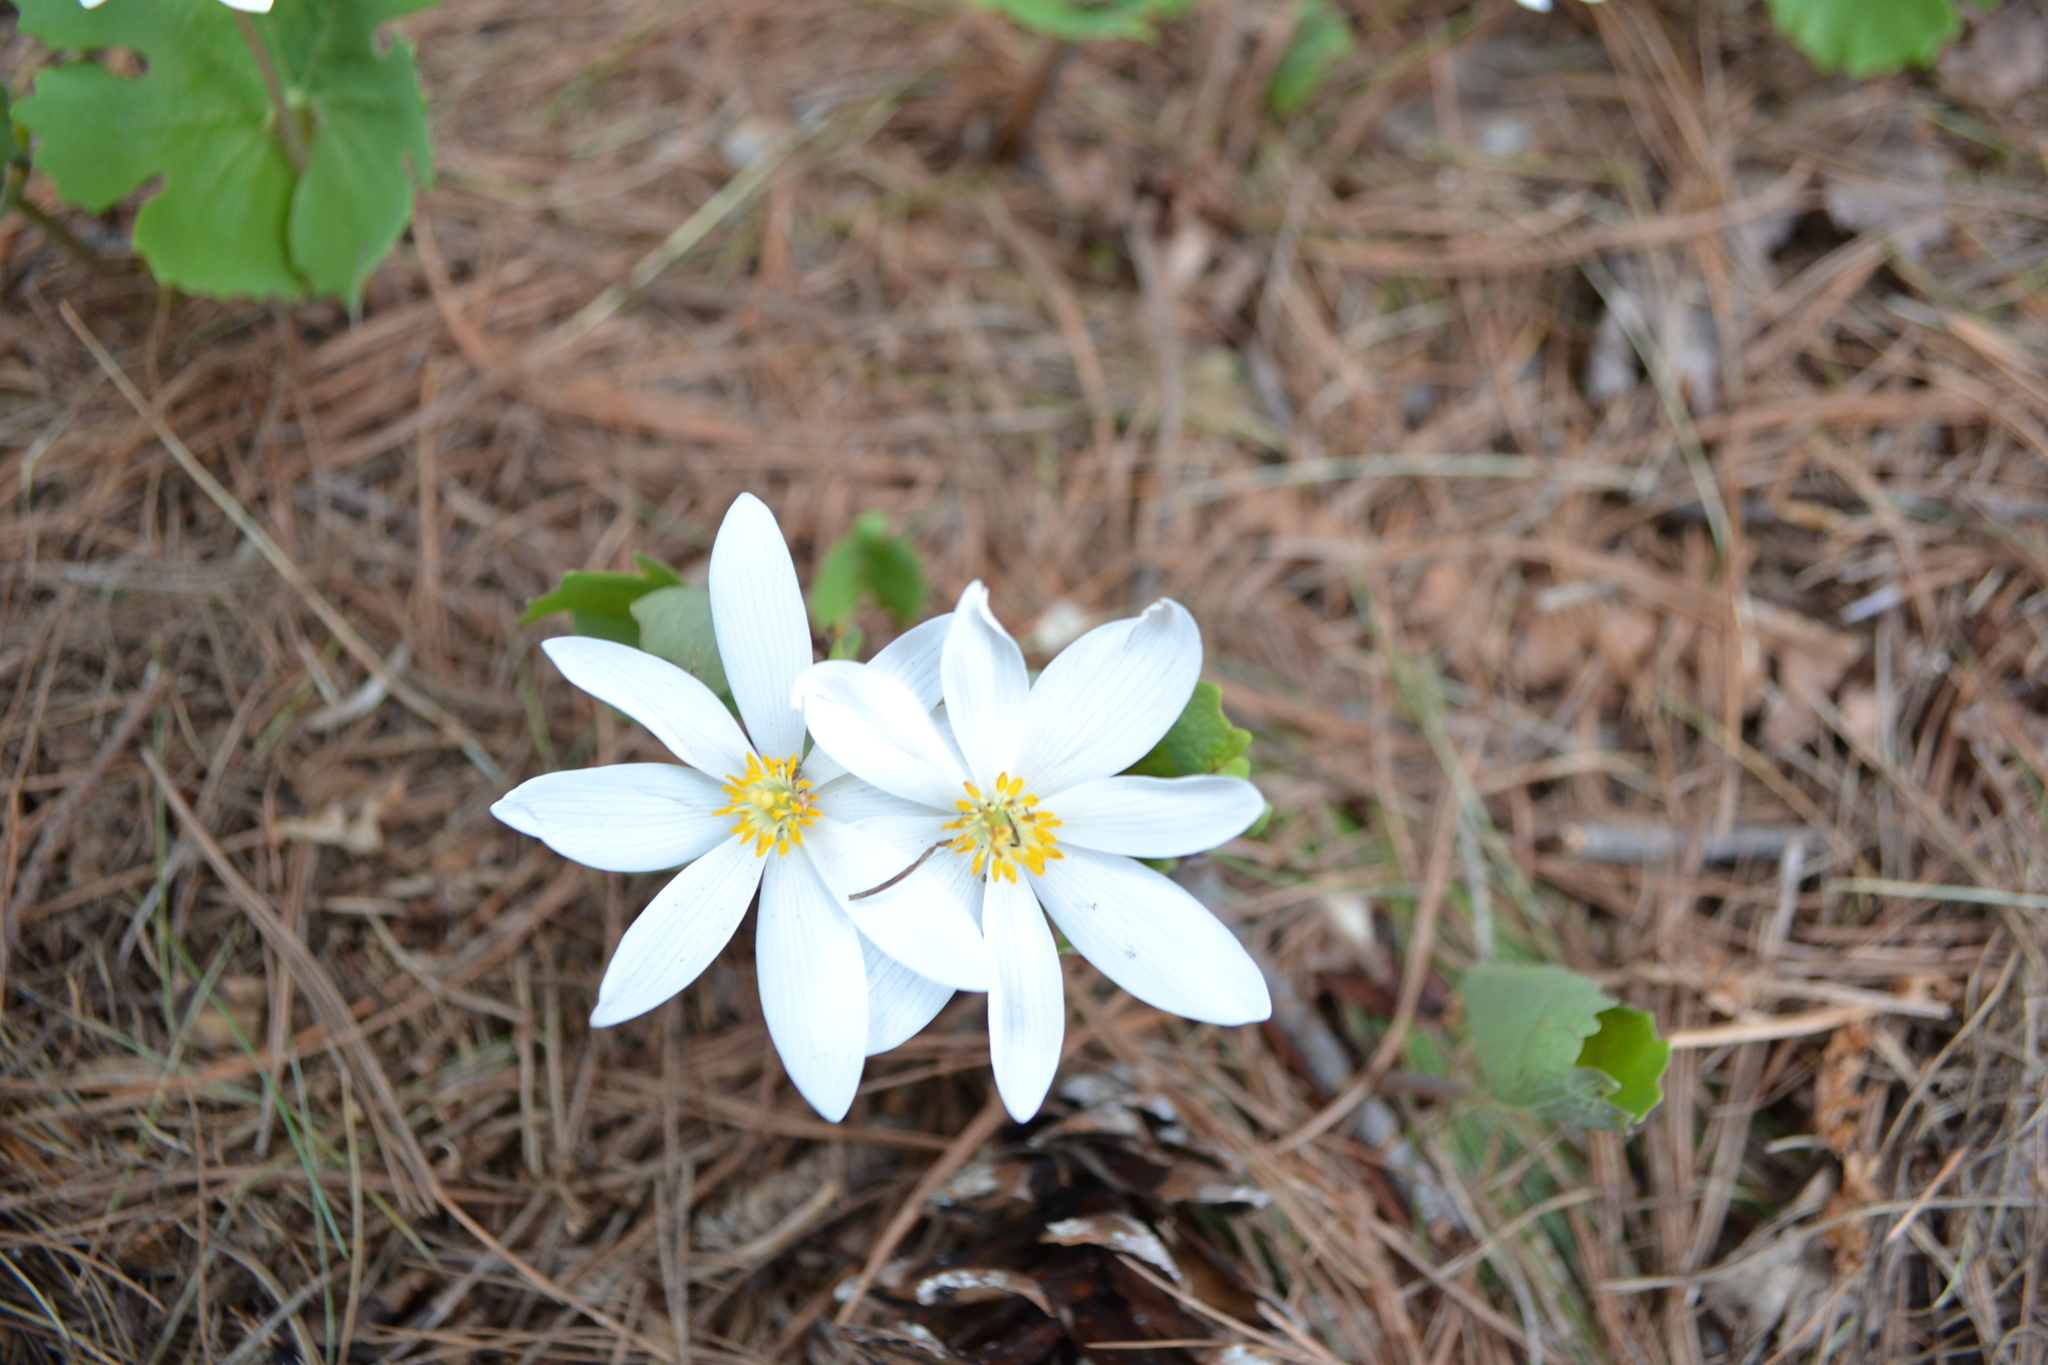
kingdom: Plantae
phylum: Tracheophyta
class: Magnoliopsida
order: Ranunculales
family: Papaveraceae
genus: Sanguinaria
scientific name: Sanguinaria canadensis
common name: Bloodroot
